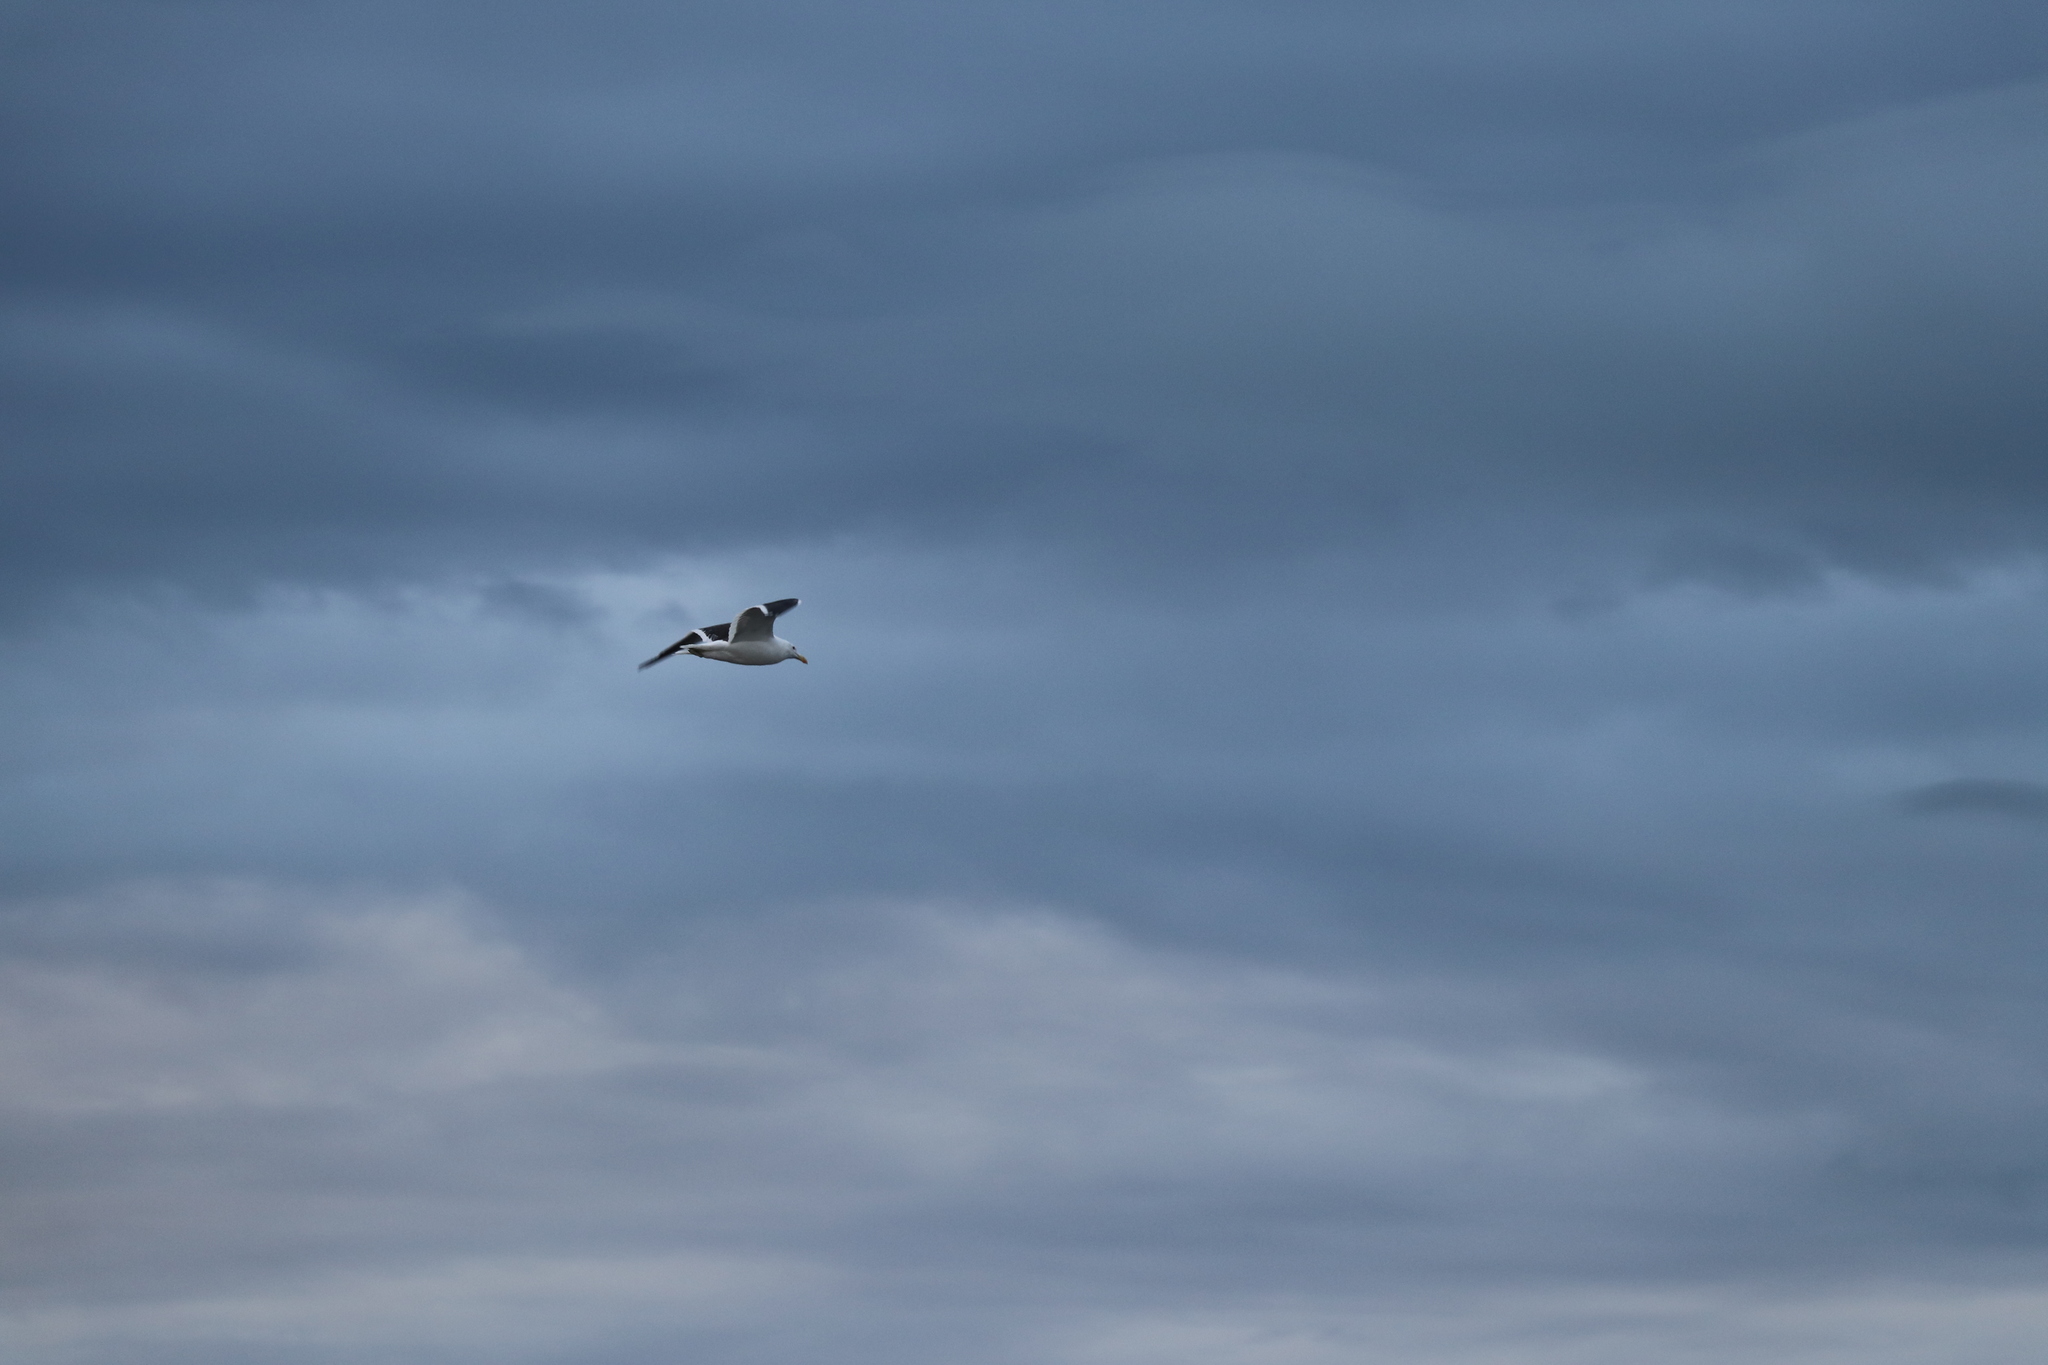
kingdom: Animalia
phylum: Chordata
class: Aves
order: Charadriiformes
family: Laridae
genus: Larus
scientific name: Larus dominicanus
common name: Kelp gull
